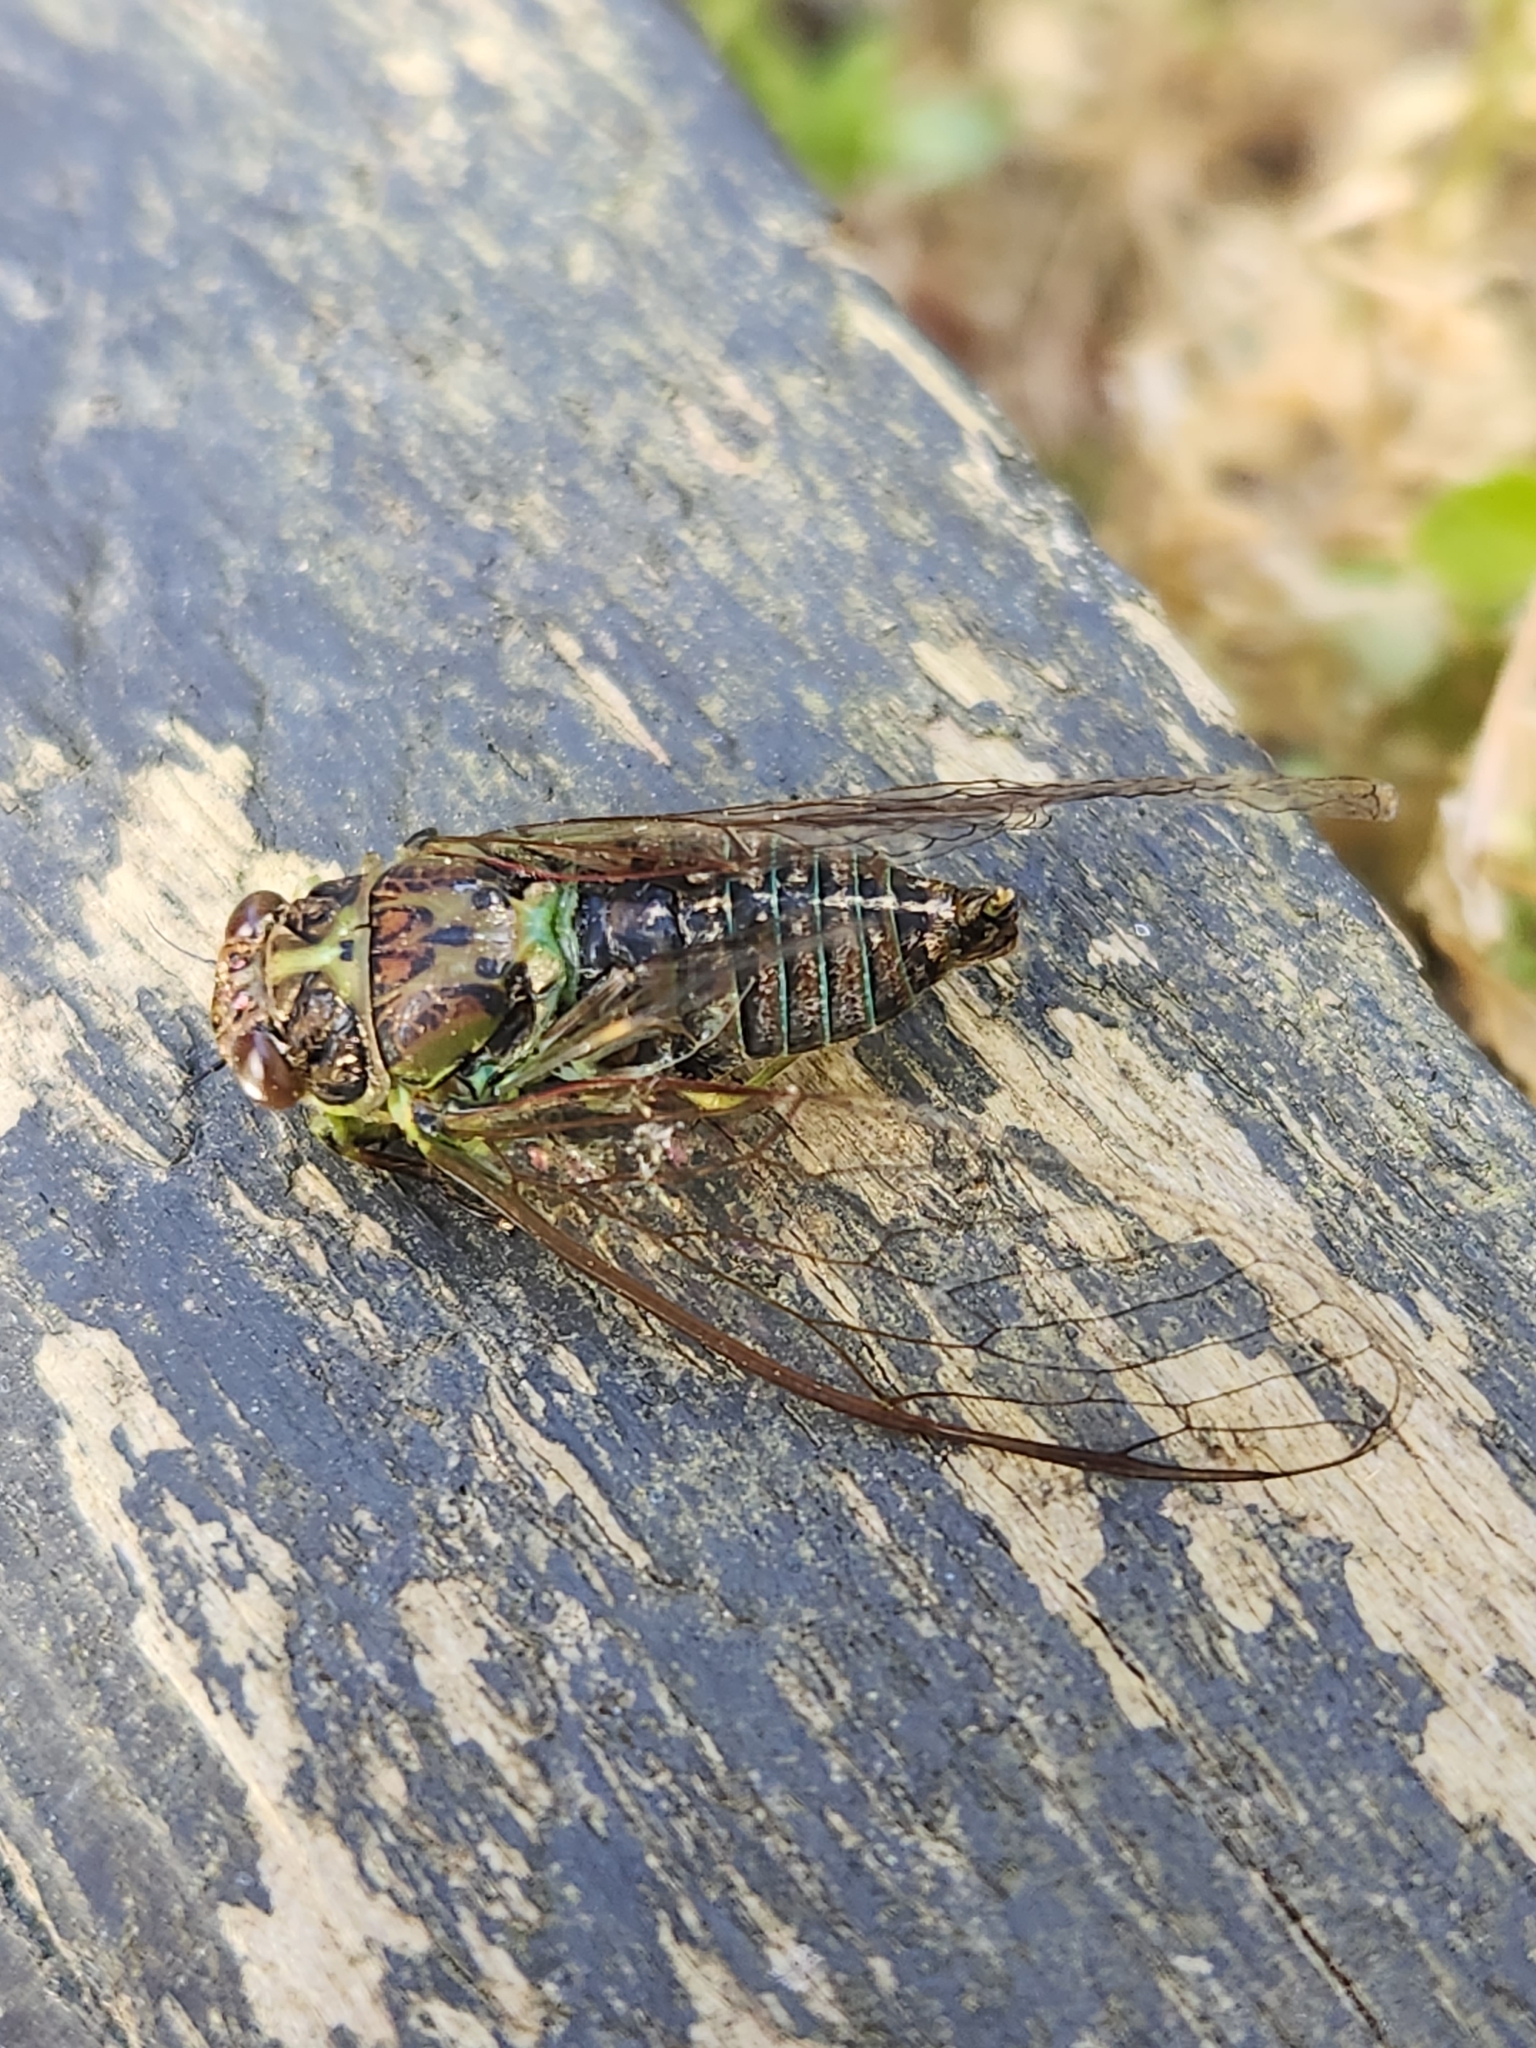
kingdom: Animalia
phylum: Arthropoda
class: Insecta
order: Hemiptera
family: Cicadidae
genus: Kikihia
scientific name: Kikihia scutellaris
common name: Lesser bronze cicada
